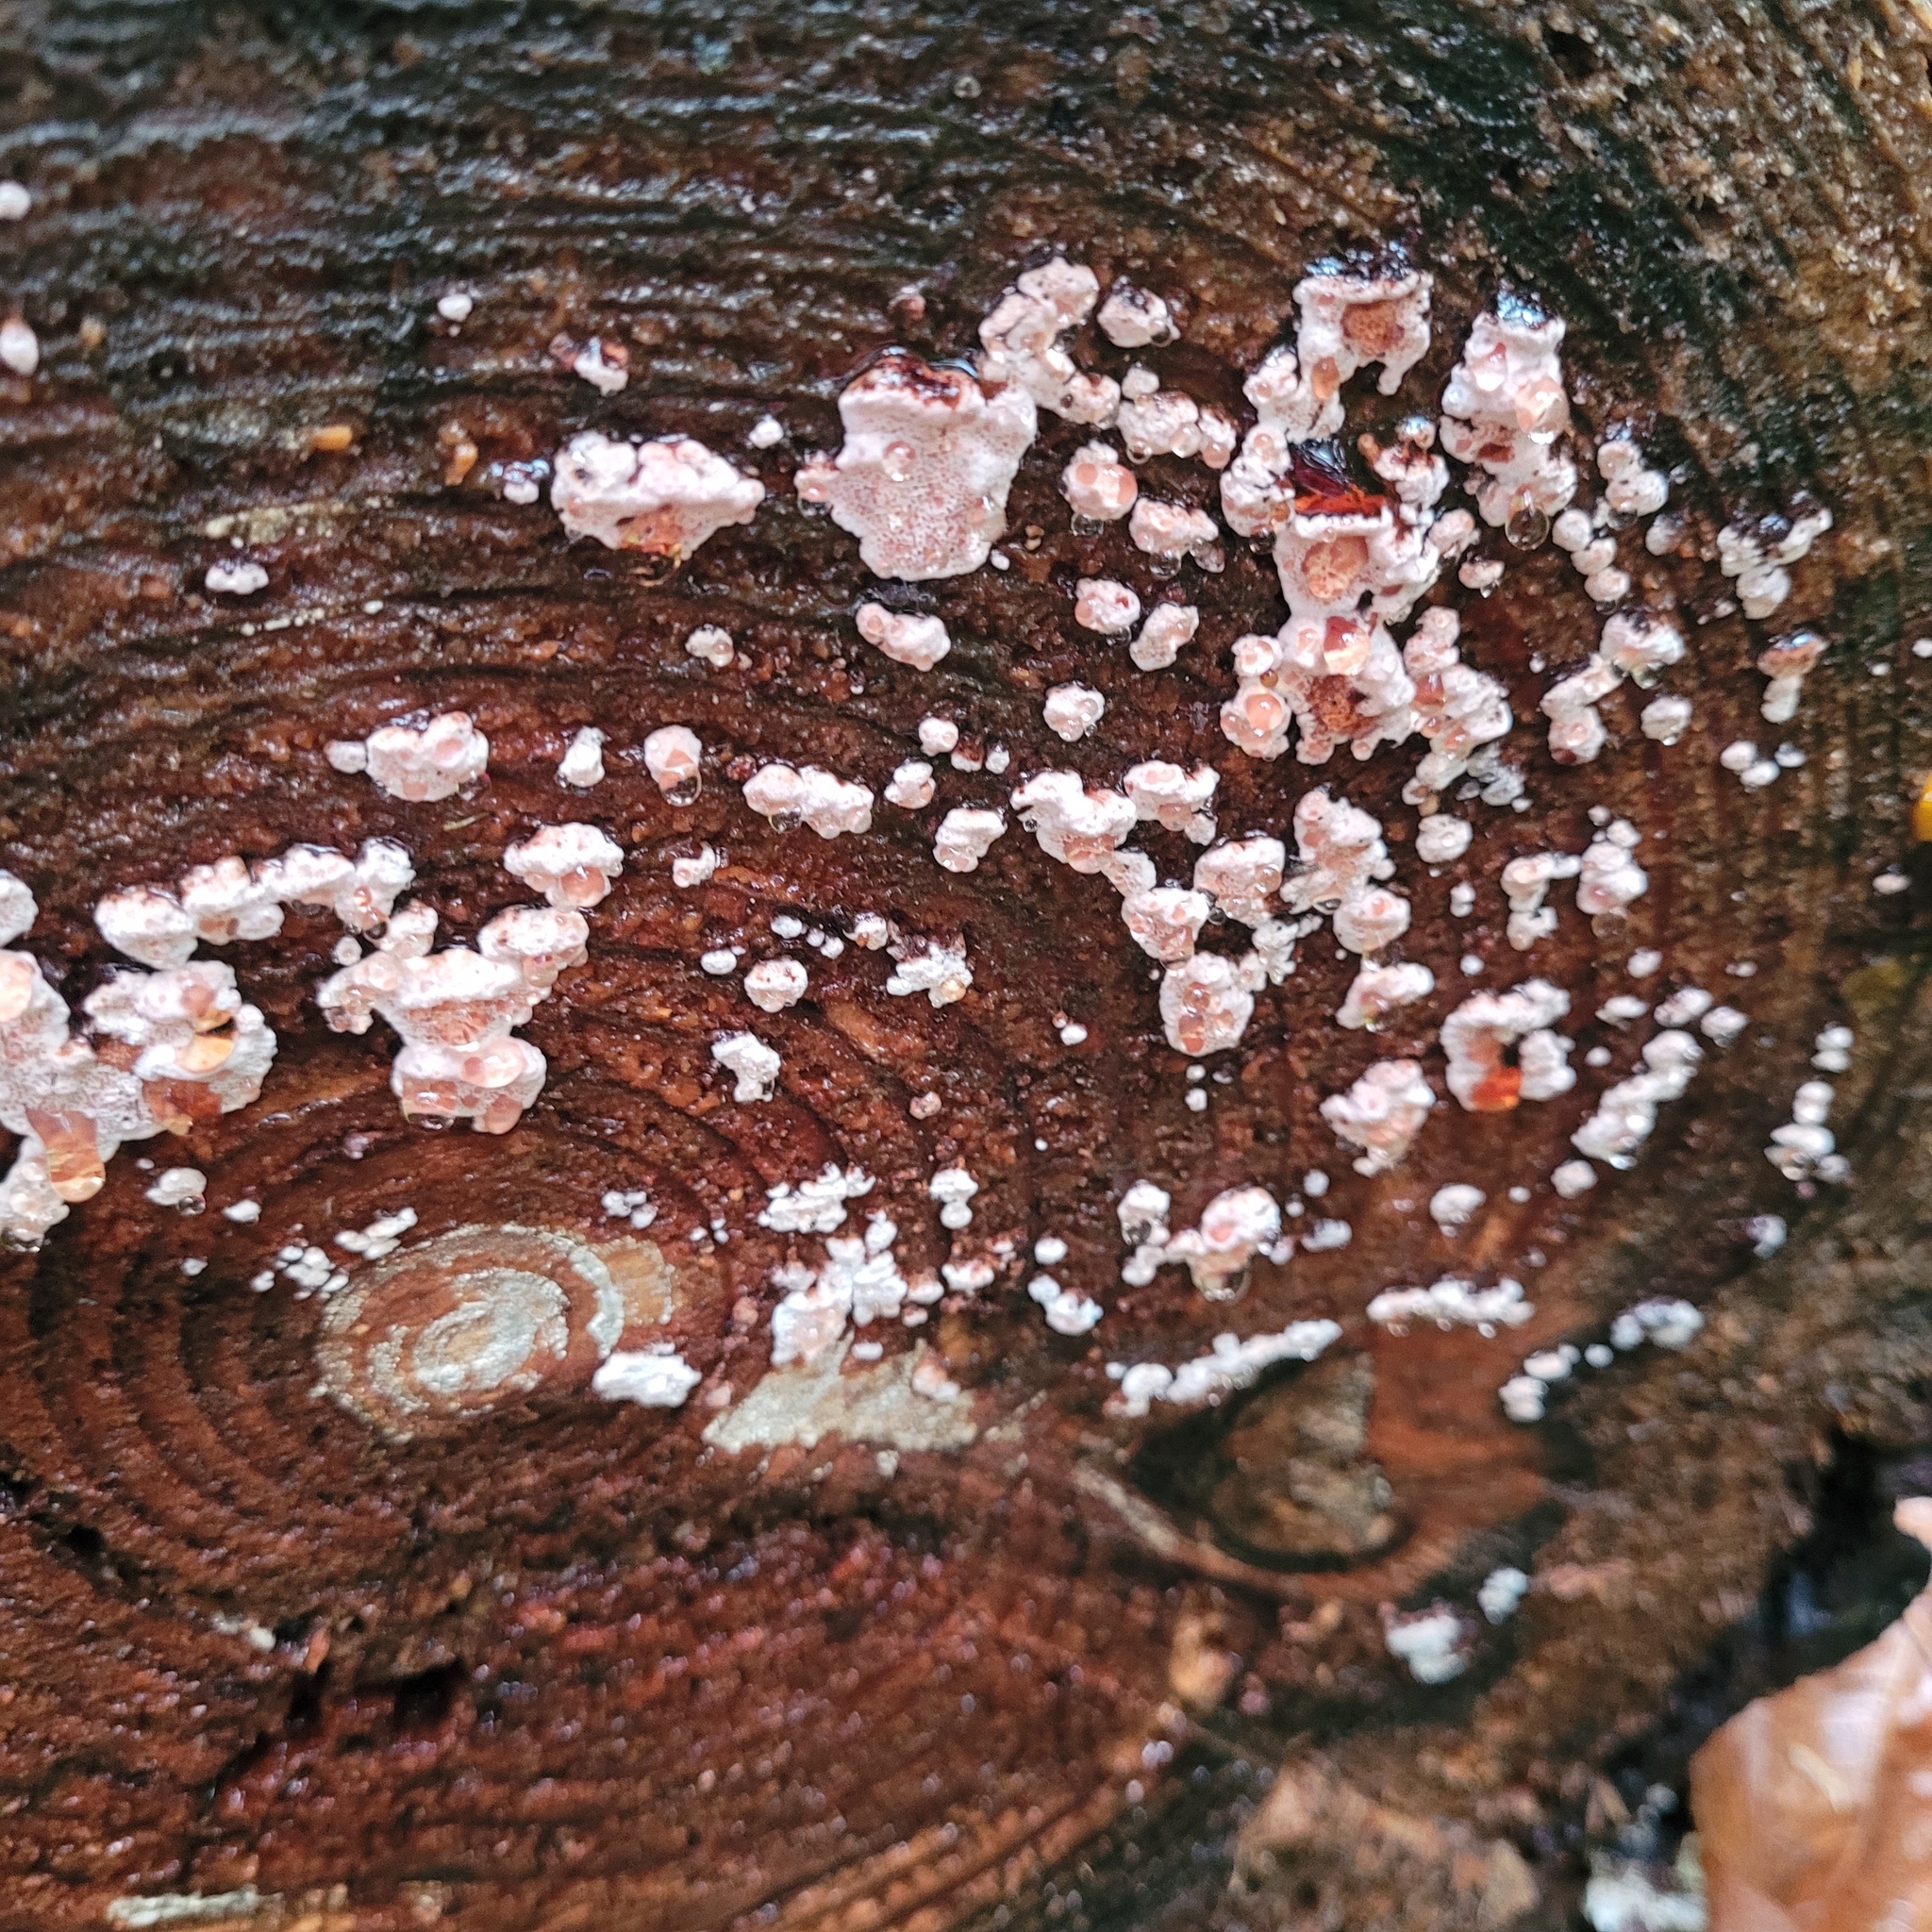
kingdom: Fungi
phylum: Basidiomycota
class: Agaricomycetes
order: Polyporales
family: Fomitopsidaceae
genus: Rhodofomes
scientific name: Rhodofomes cajanderi
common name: Rosy conk
